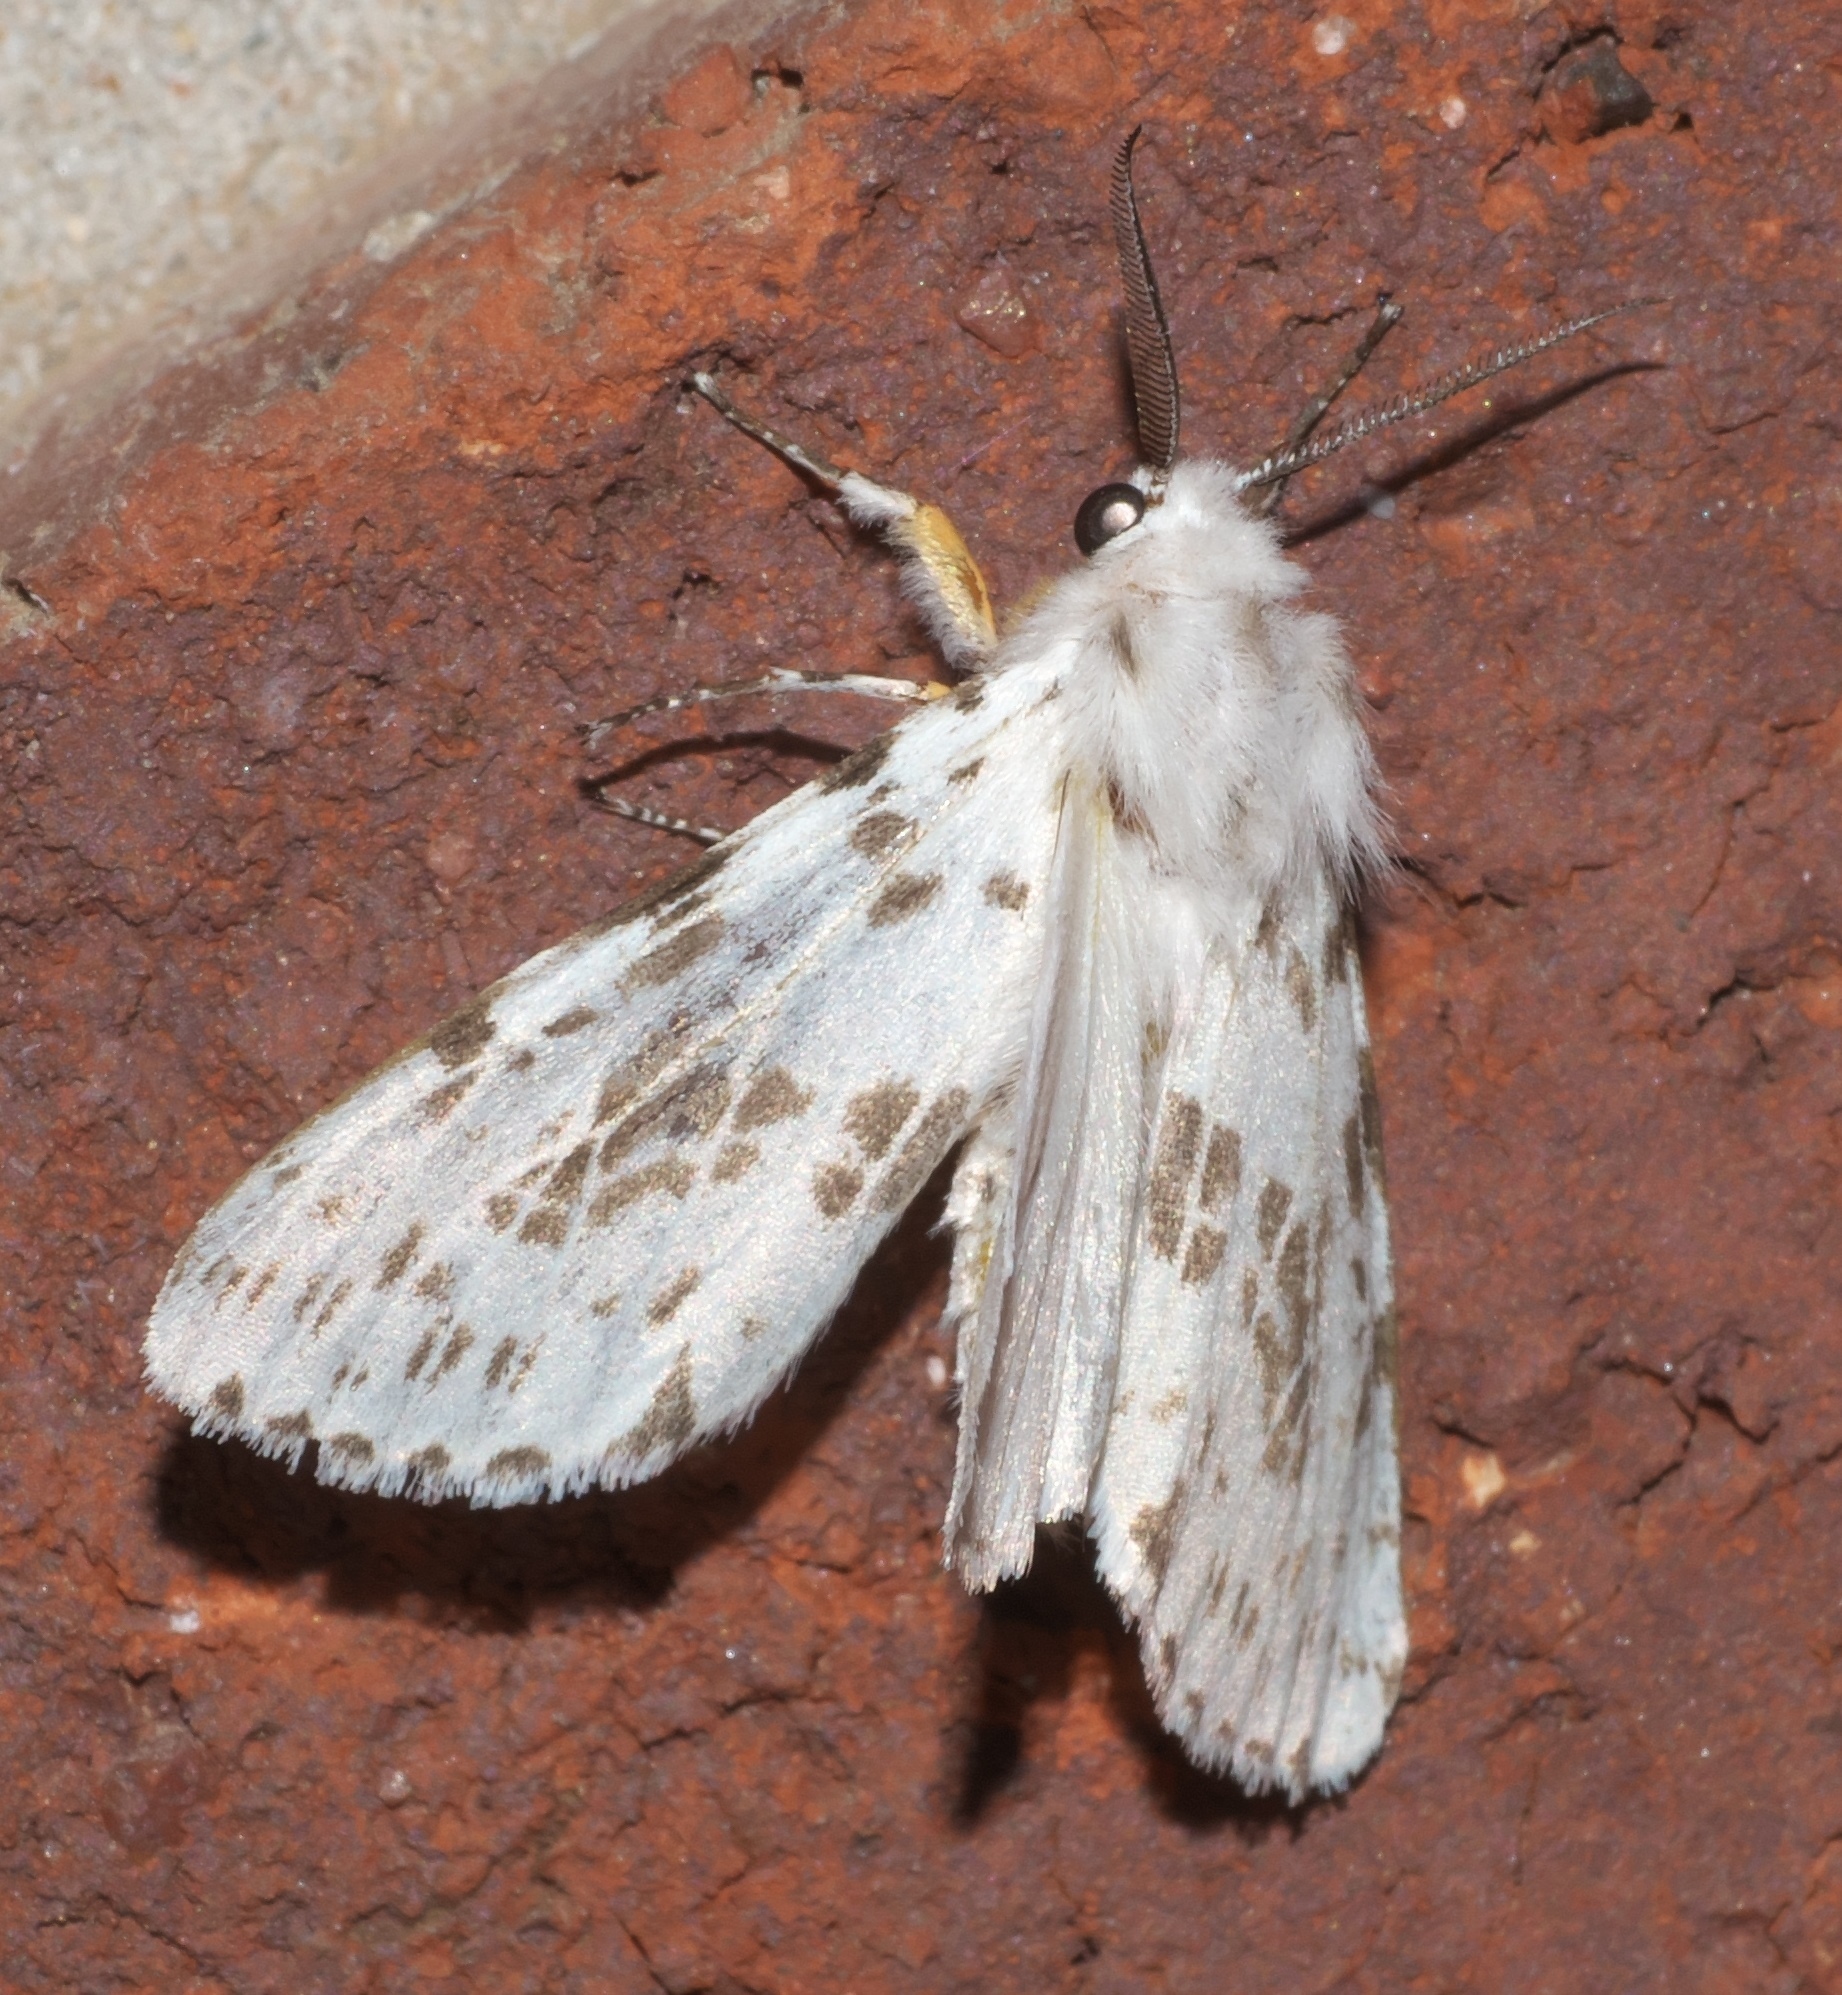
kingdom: Animalia
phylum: Arthropoda
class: Insecta
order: Lepidoptera
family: Erebidae
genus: Hyphantria
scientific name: Hyphantria cunea
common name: American white moth
